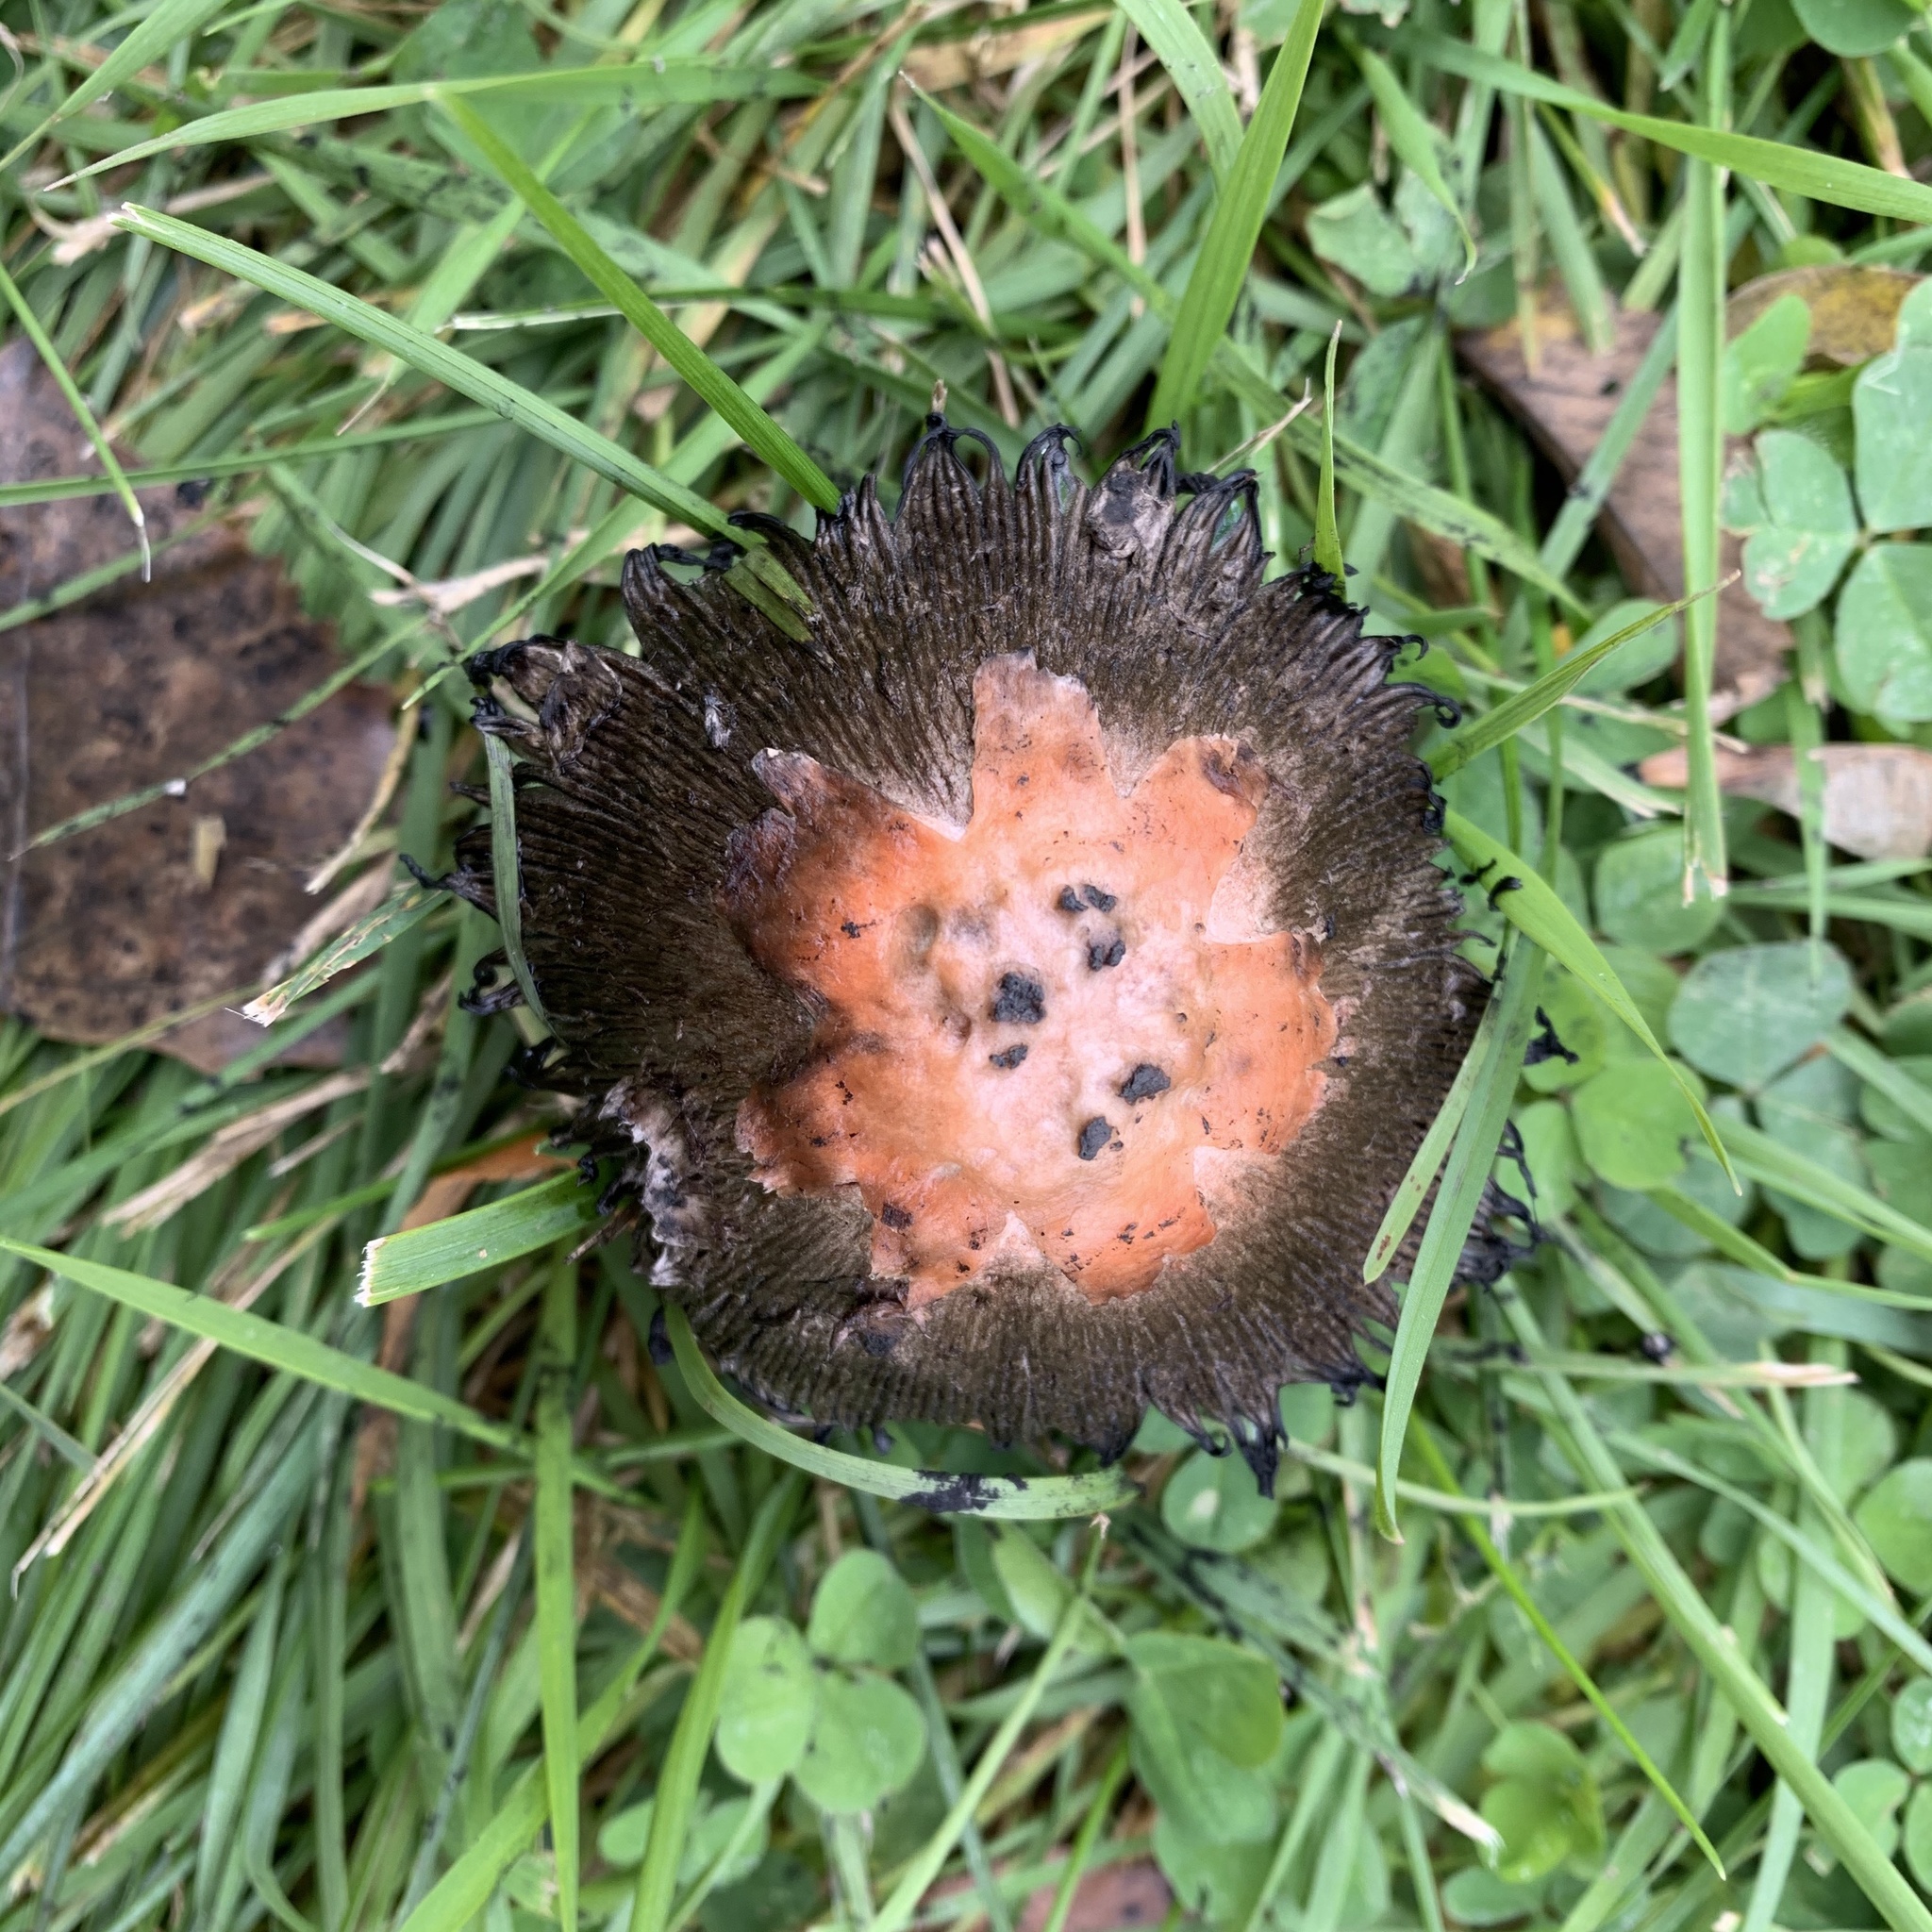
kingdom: Fungi
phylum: Basidiomycota
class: Agaricomycetes
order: Agaricales
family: Agaricaceae
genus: Coprinus
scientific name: Coprinus comatus
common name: Lawyer's wig
